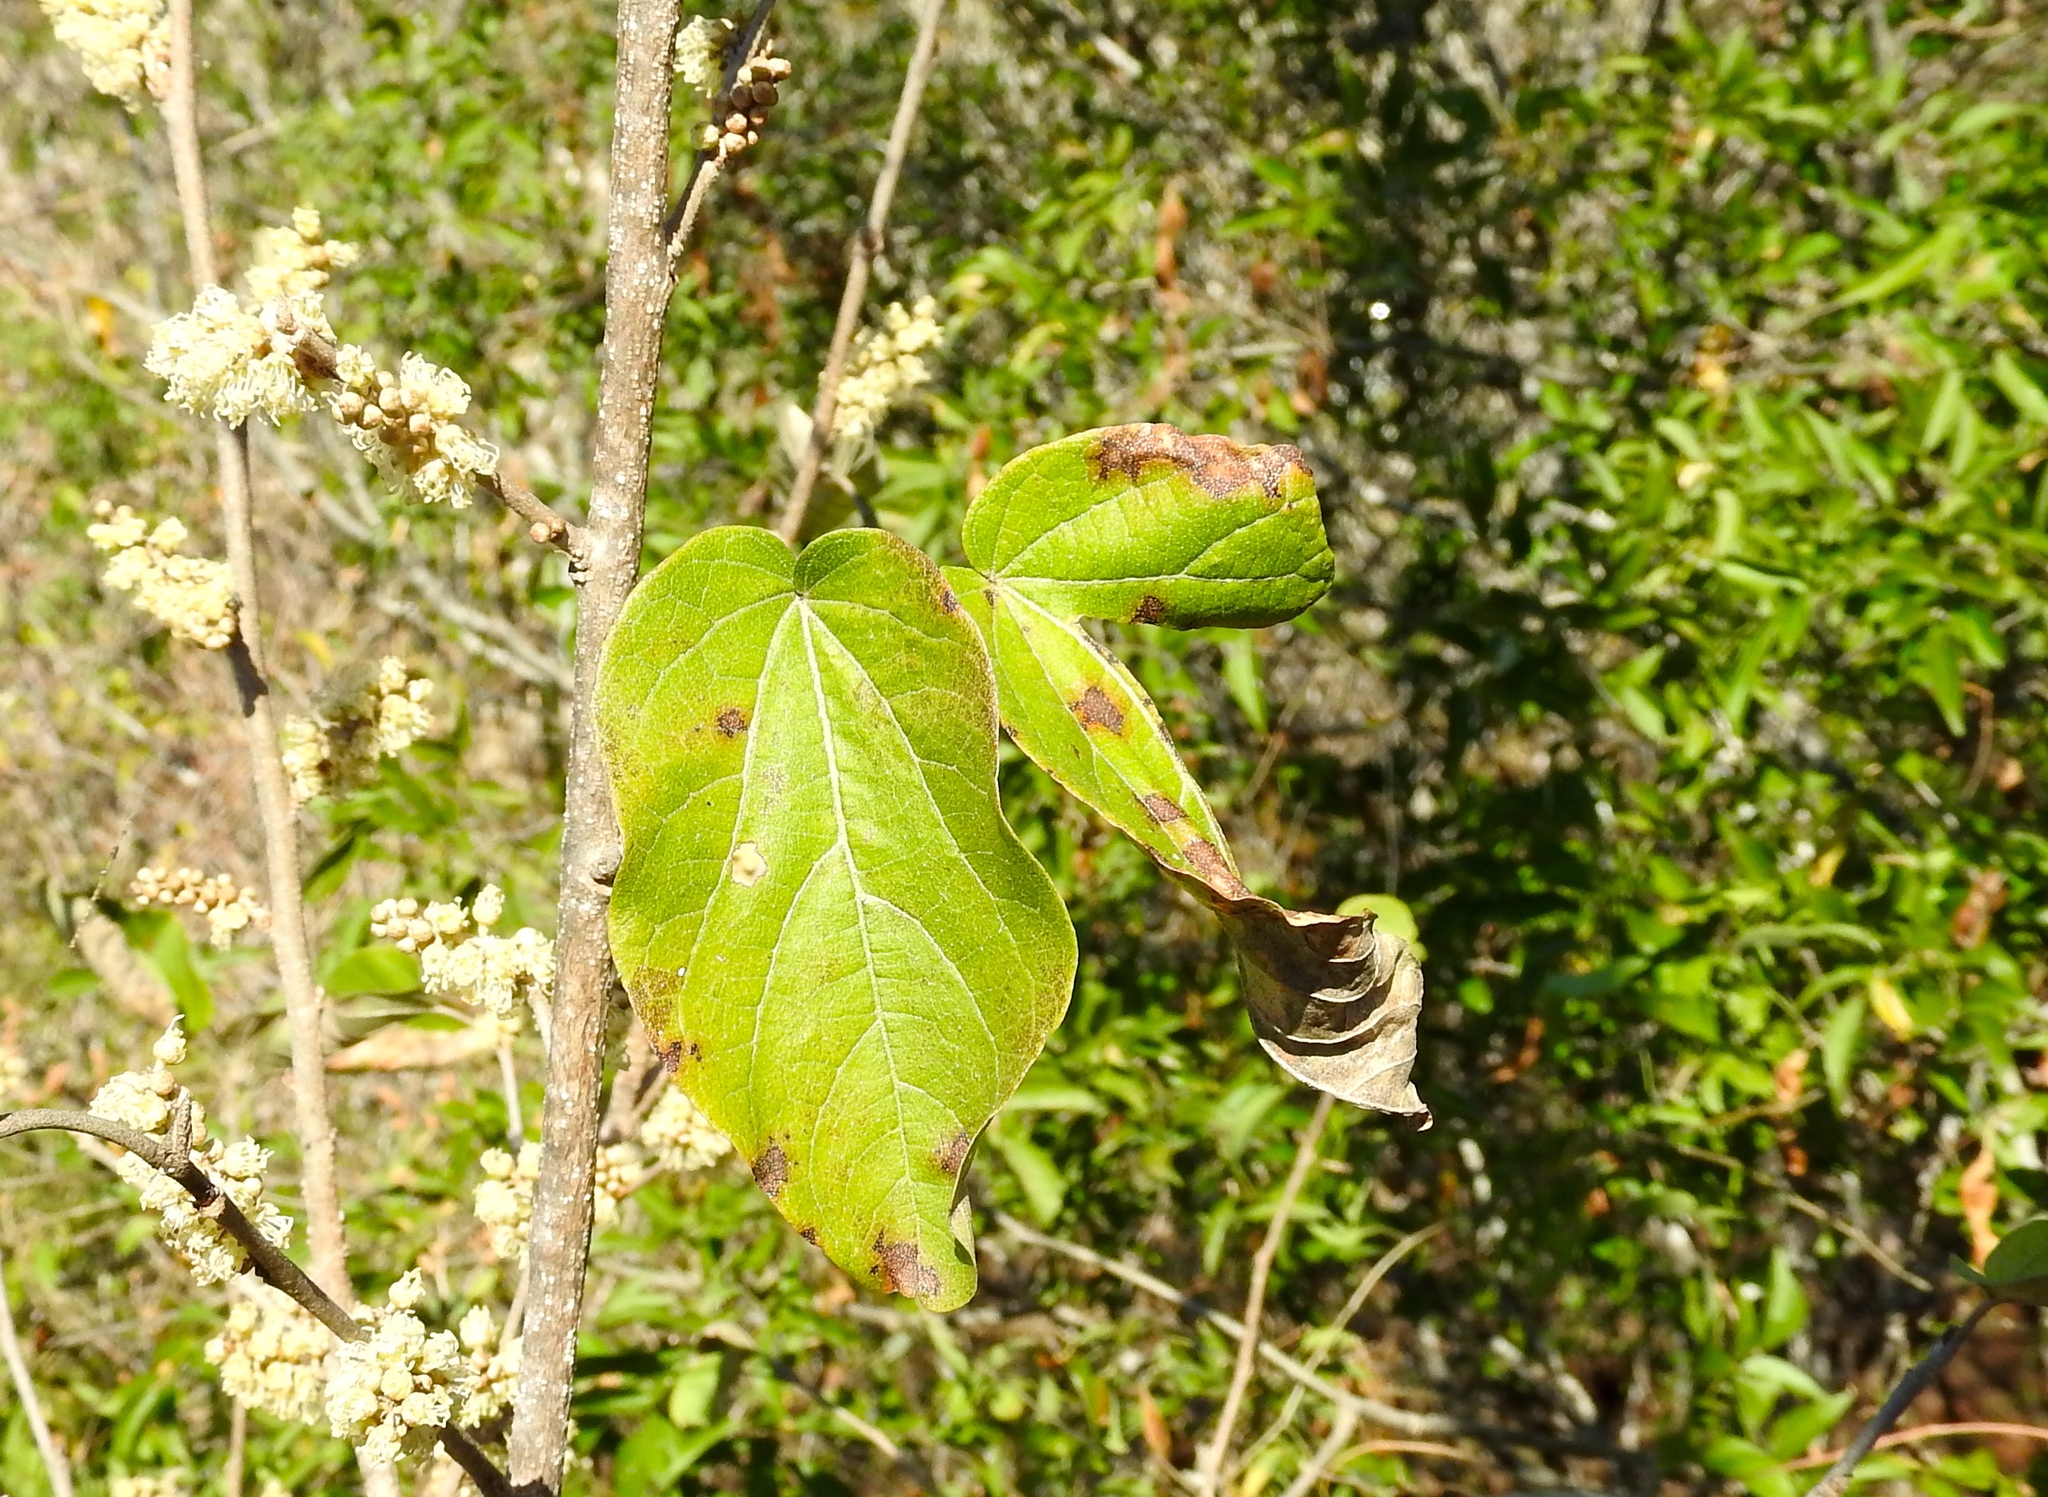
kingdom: Plantae
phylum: Tracheophyta
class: Magnoliopsida
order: Malpighiales
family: Euphorbiaceae
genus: Croton
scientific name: Croton
